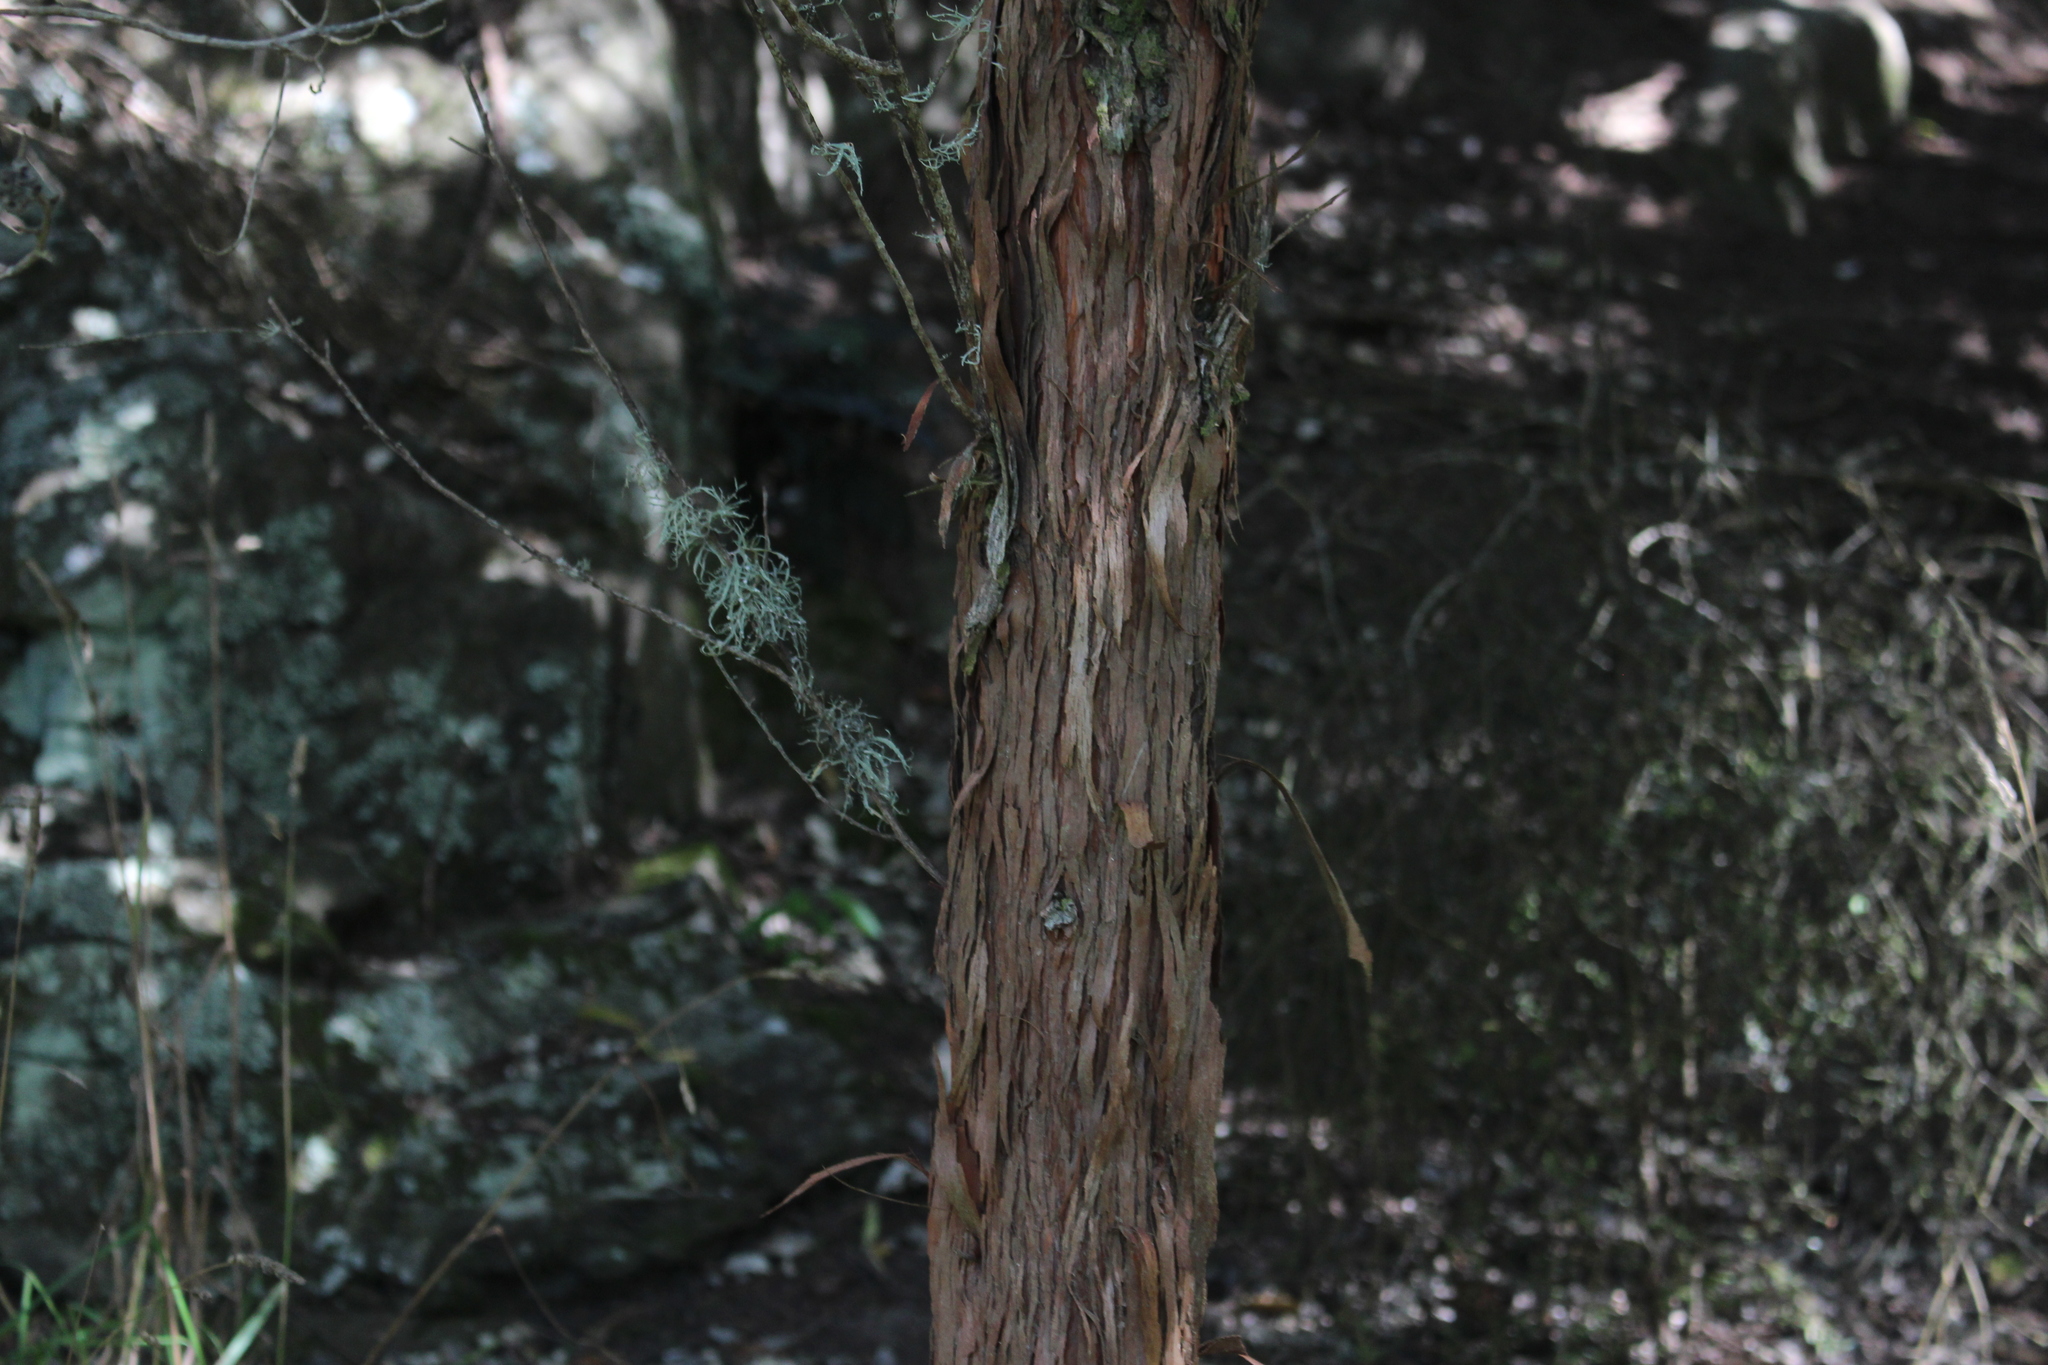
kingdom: Plantae
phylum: Tracheophyta
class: Magnoliopsida
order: Sapindales
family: Sapindaceae
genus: Dodonaea
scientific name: Dodonaea viscosa
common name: Hopbush
